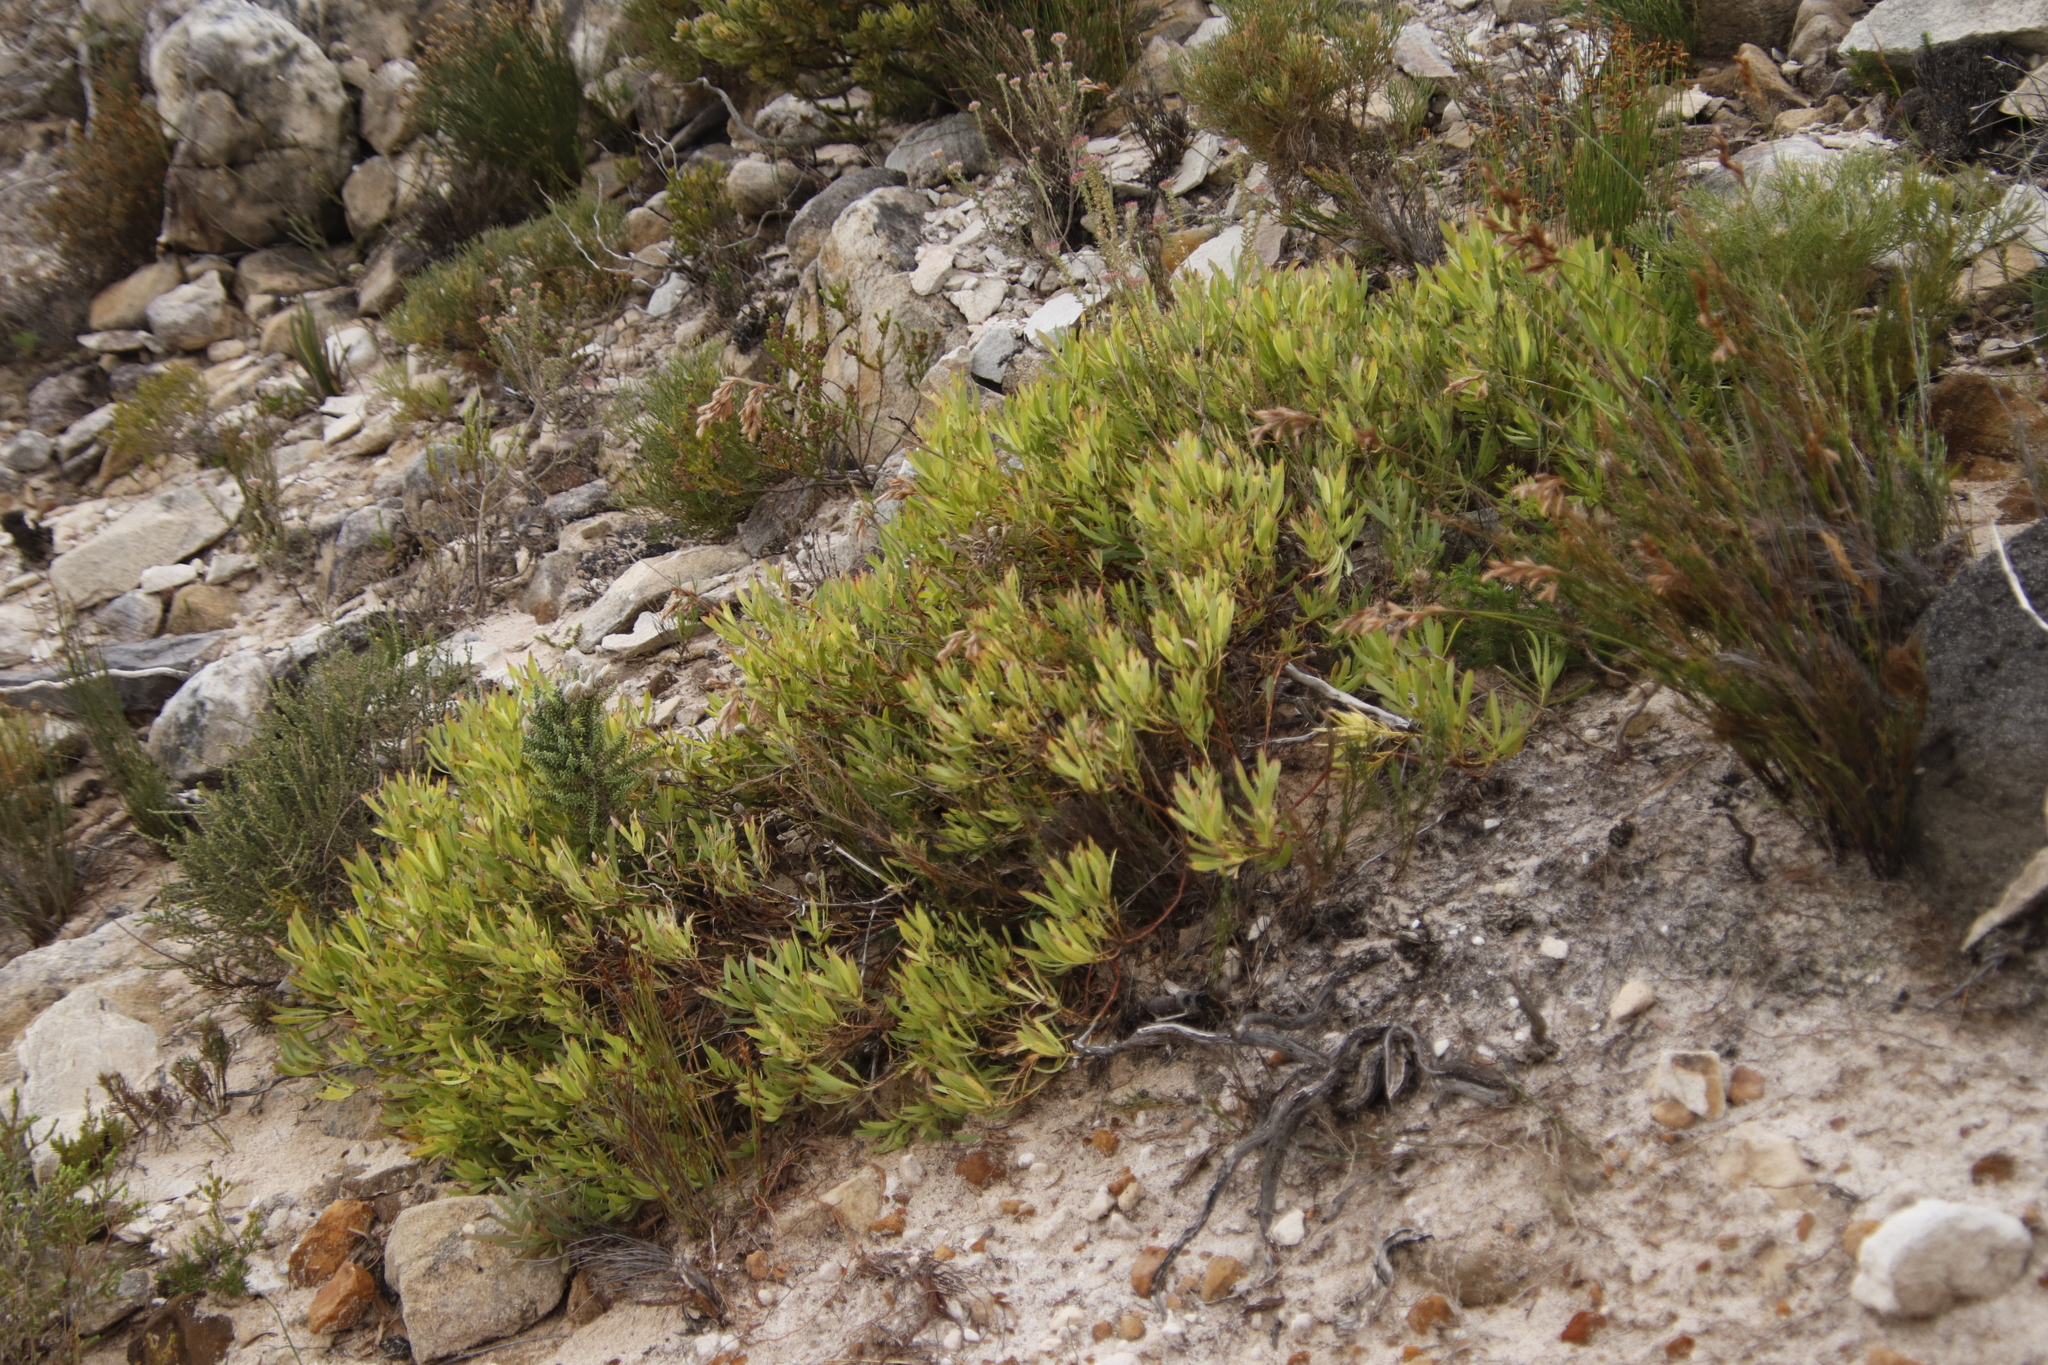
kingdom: Plantae
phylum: Tracheophyta
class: Magnoliopsida
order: Proteales
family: Proteaceae
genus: Leucadendron
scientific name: Leucadendron salignum
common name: Common sunshine conebush
